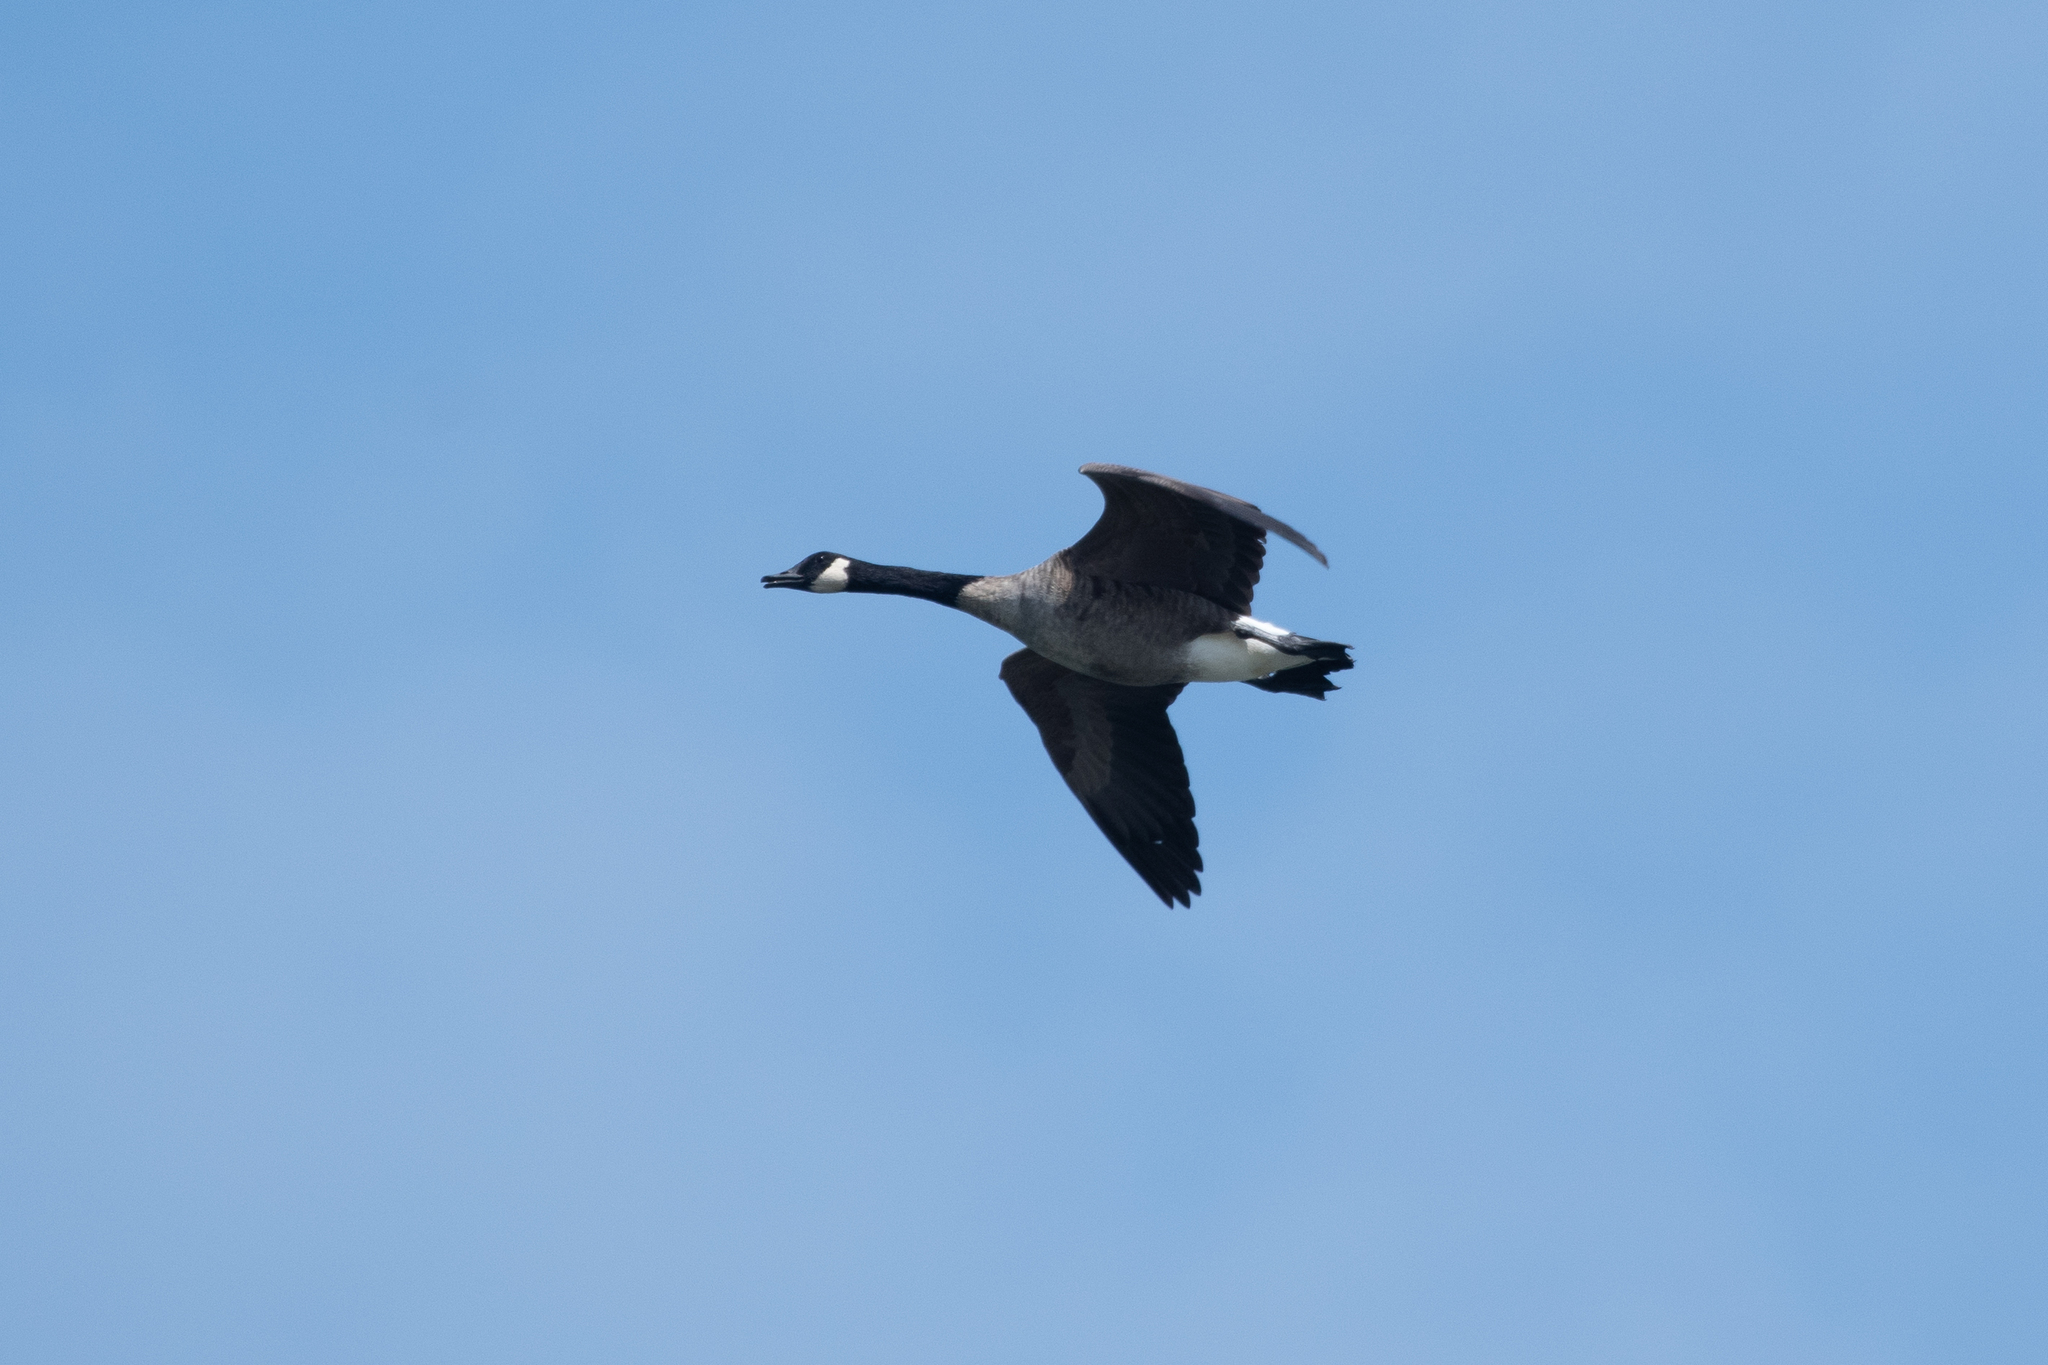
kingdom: Animalia
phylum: Chordata
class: Aves
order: Anseriformes
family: Anatidae
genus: Branta
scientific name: Branta canadensis
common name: Canada goose
